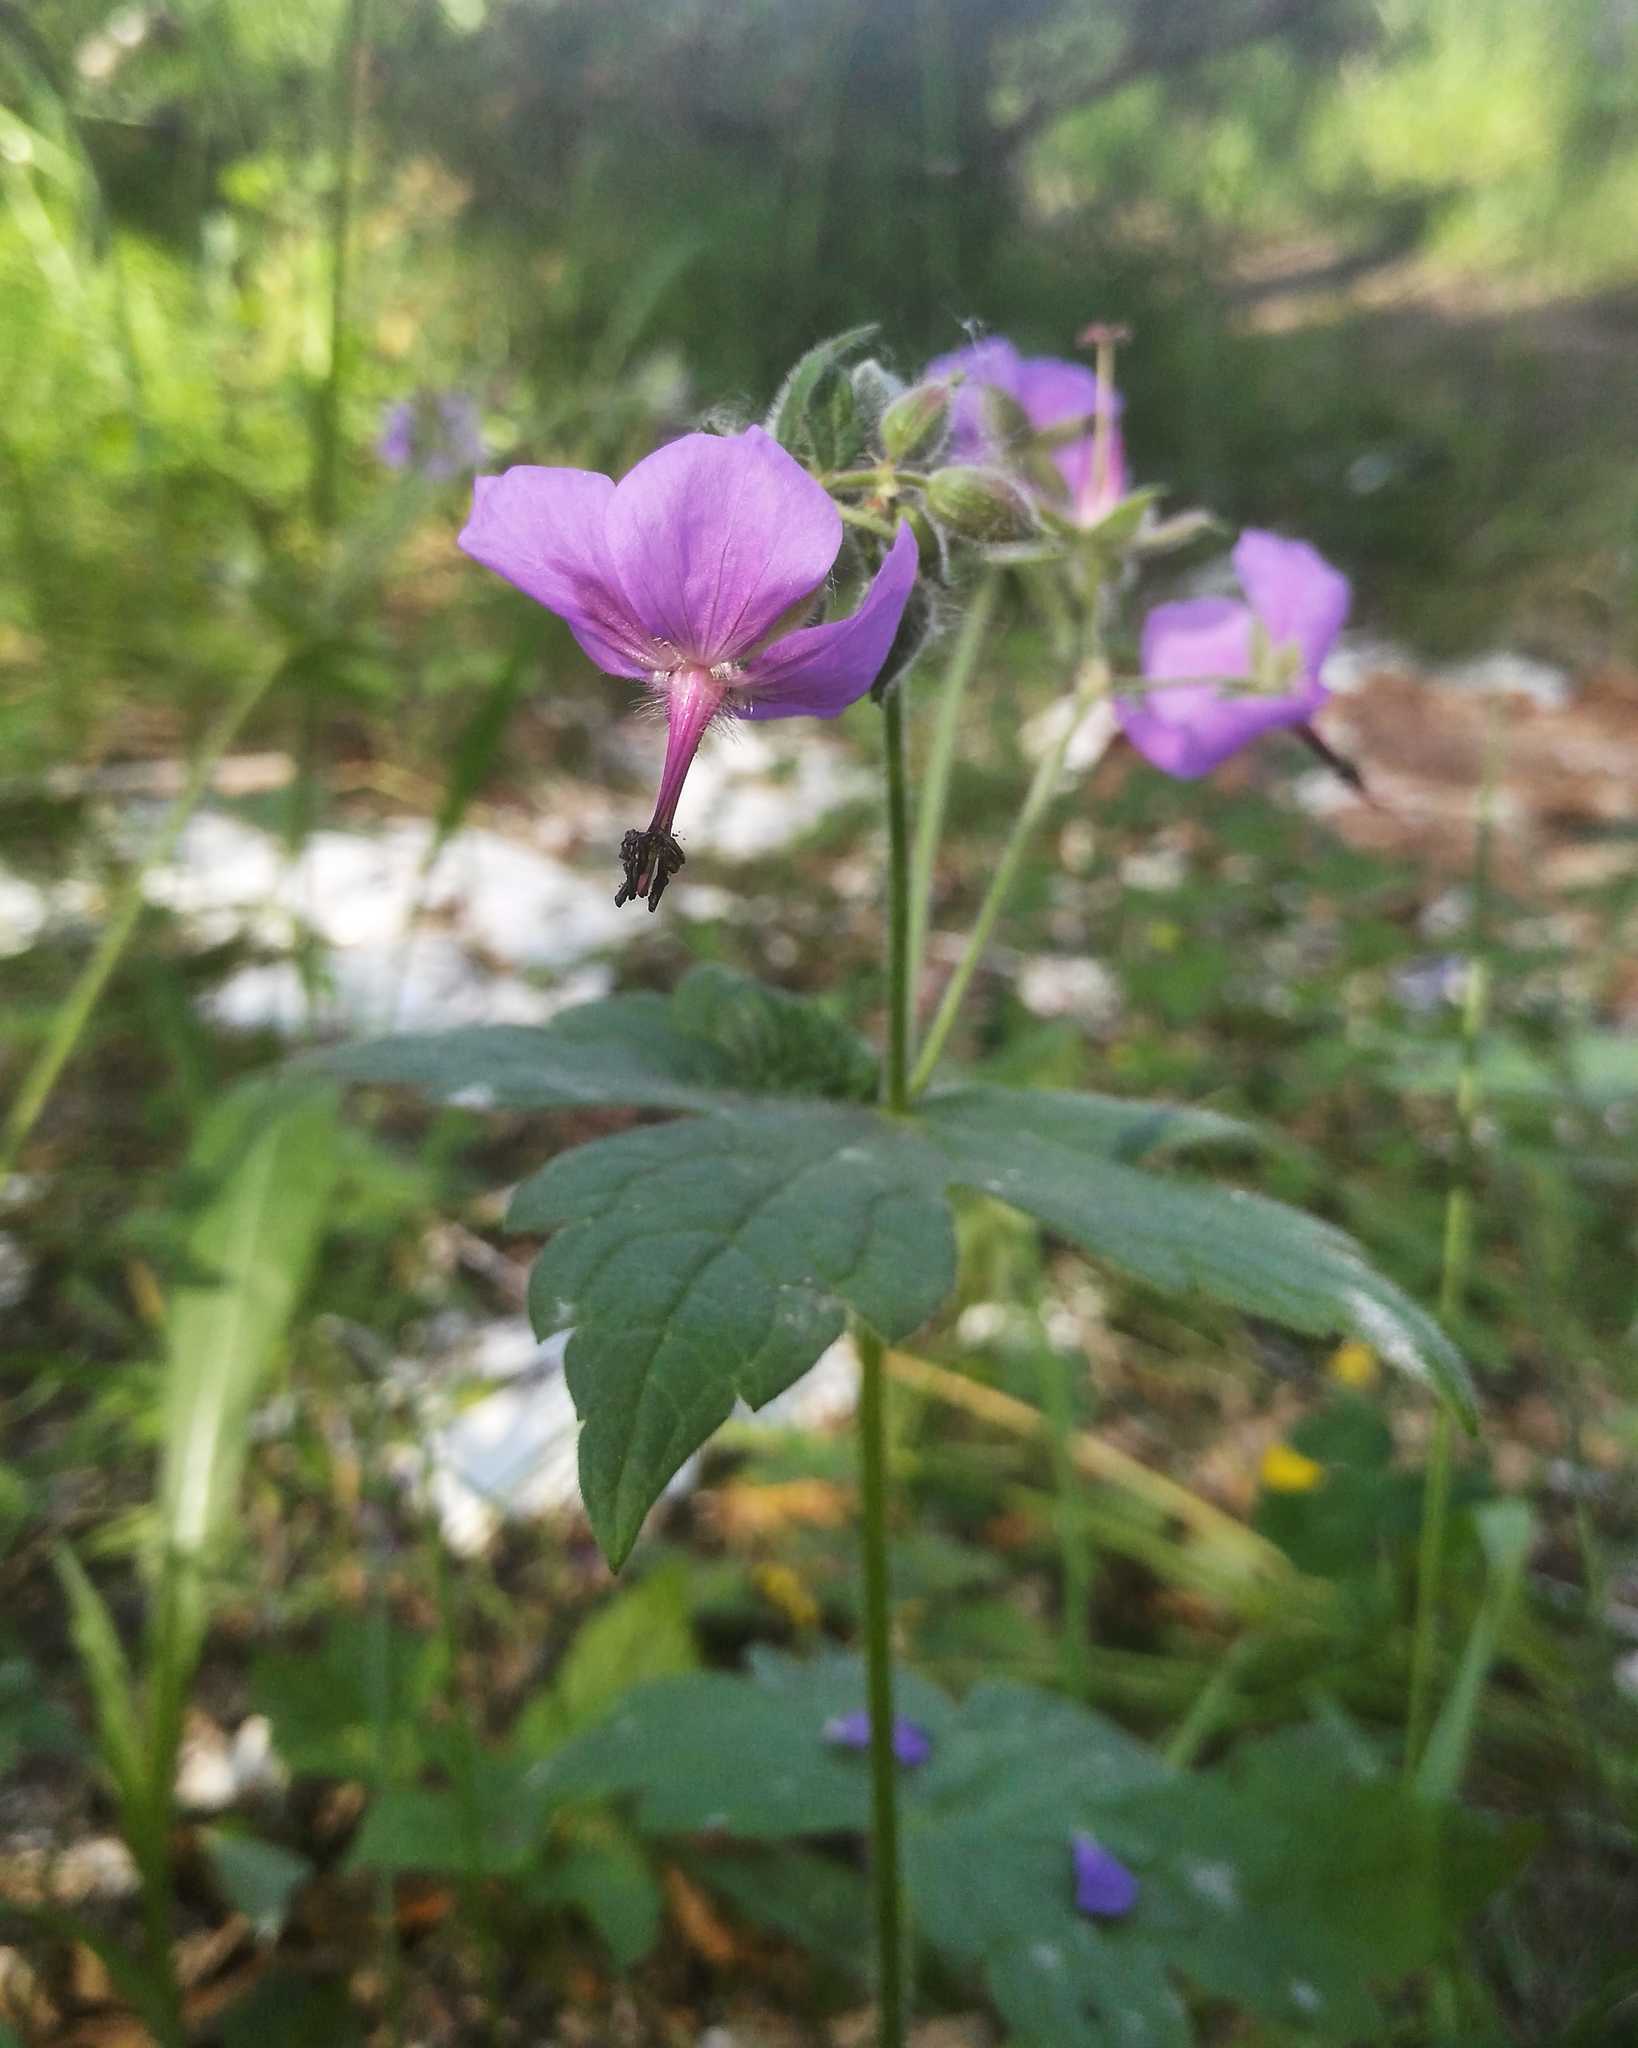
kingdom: Plantae
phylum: Tracheophyta
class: Magnoliopsida
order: Geraniales
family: Geraniaceae
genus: Geranium
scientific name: Geranium platyanthum
